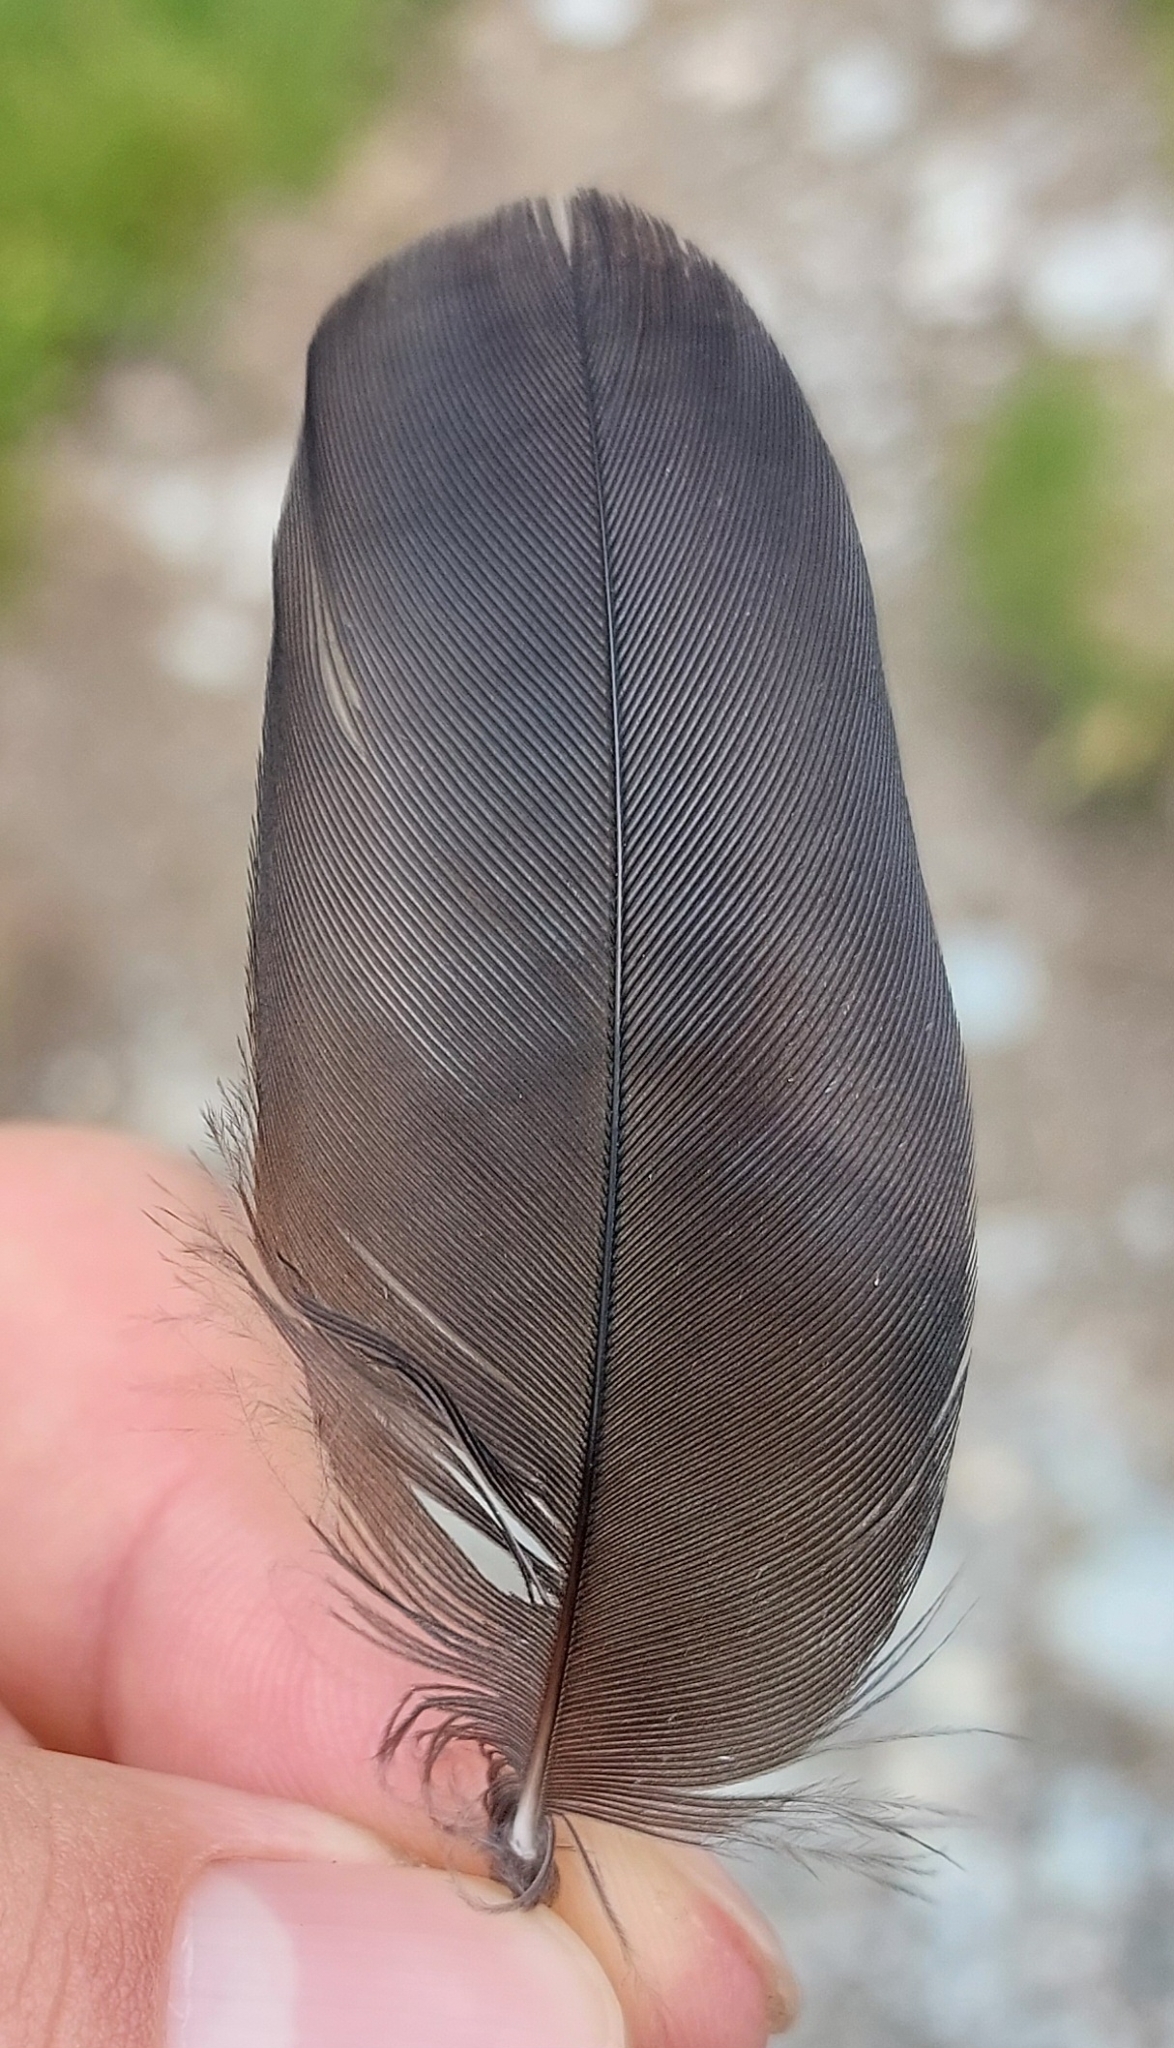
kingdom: Animalia
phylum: Chordata
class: Aves
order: Passeriformes
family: Corvidae
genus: Pyrrhocorax
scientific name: Pyrrhocorax graculus
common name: Alpine chough
